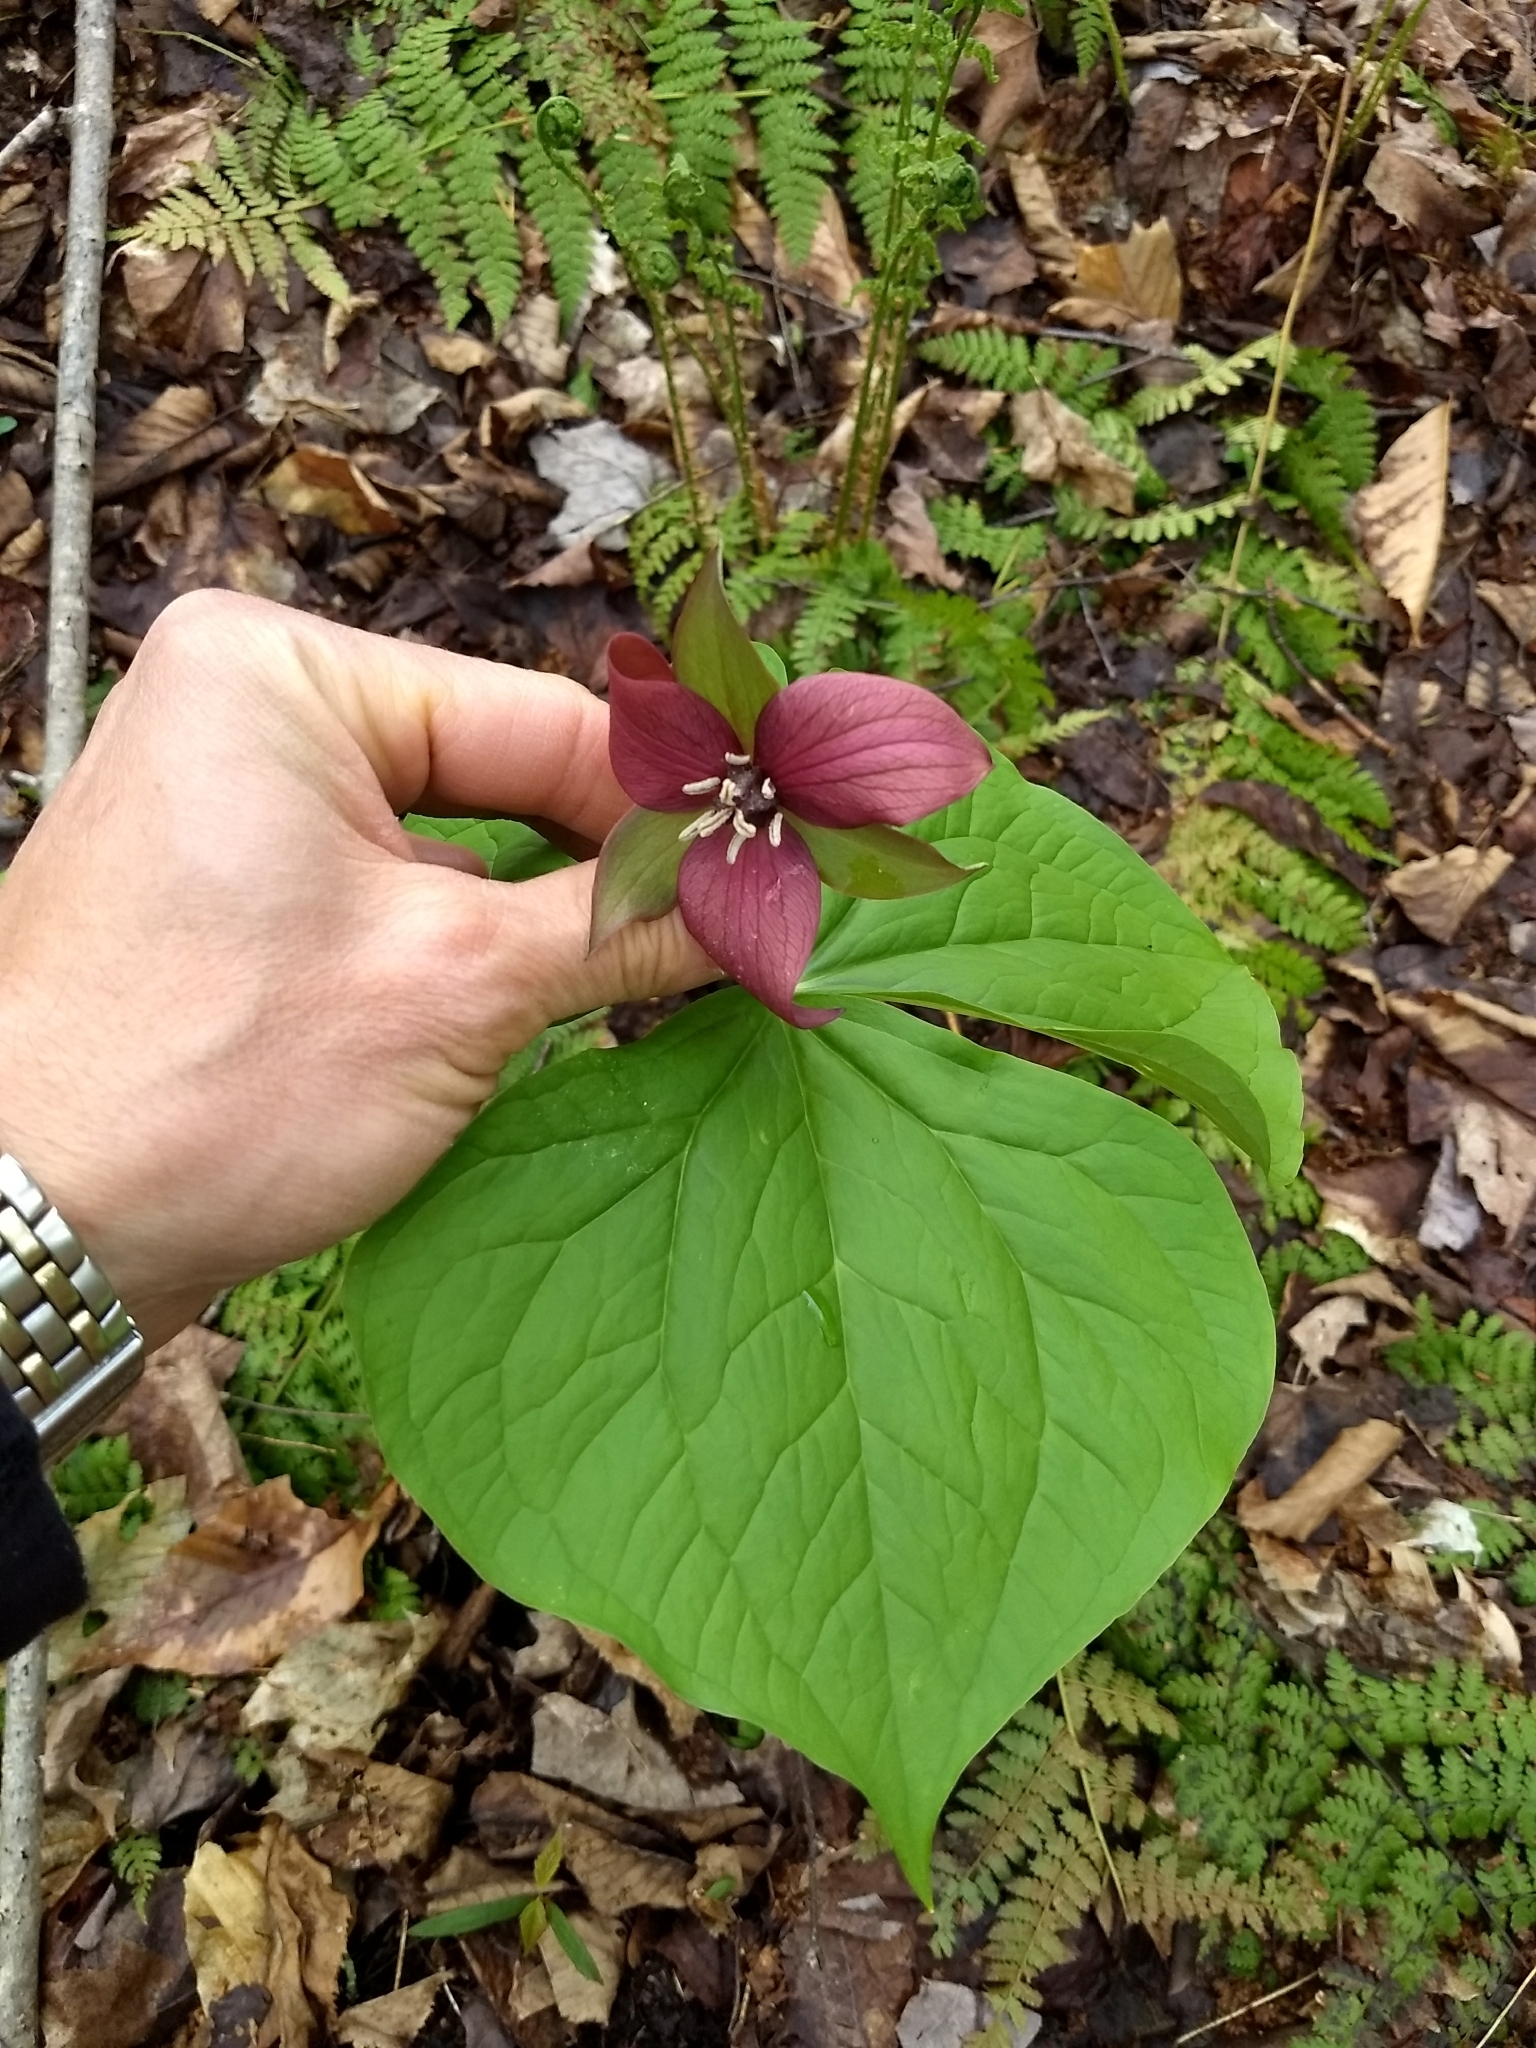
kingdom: Plantae
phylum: Tracheophyta
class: Liliopsida
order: Liliales
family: Melanthiaceae
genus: Trillium
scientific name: Trillium erectum
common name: Purple trillium
